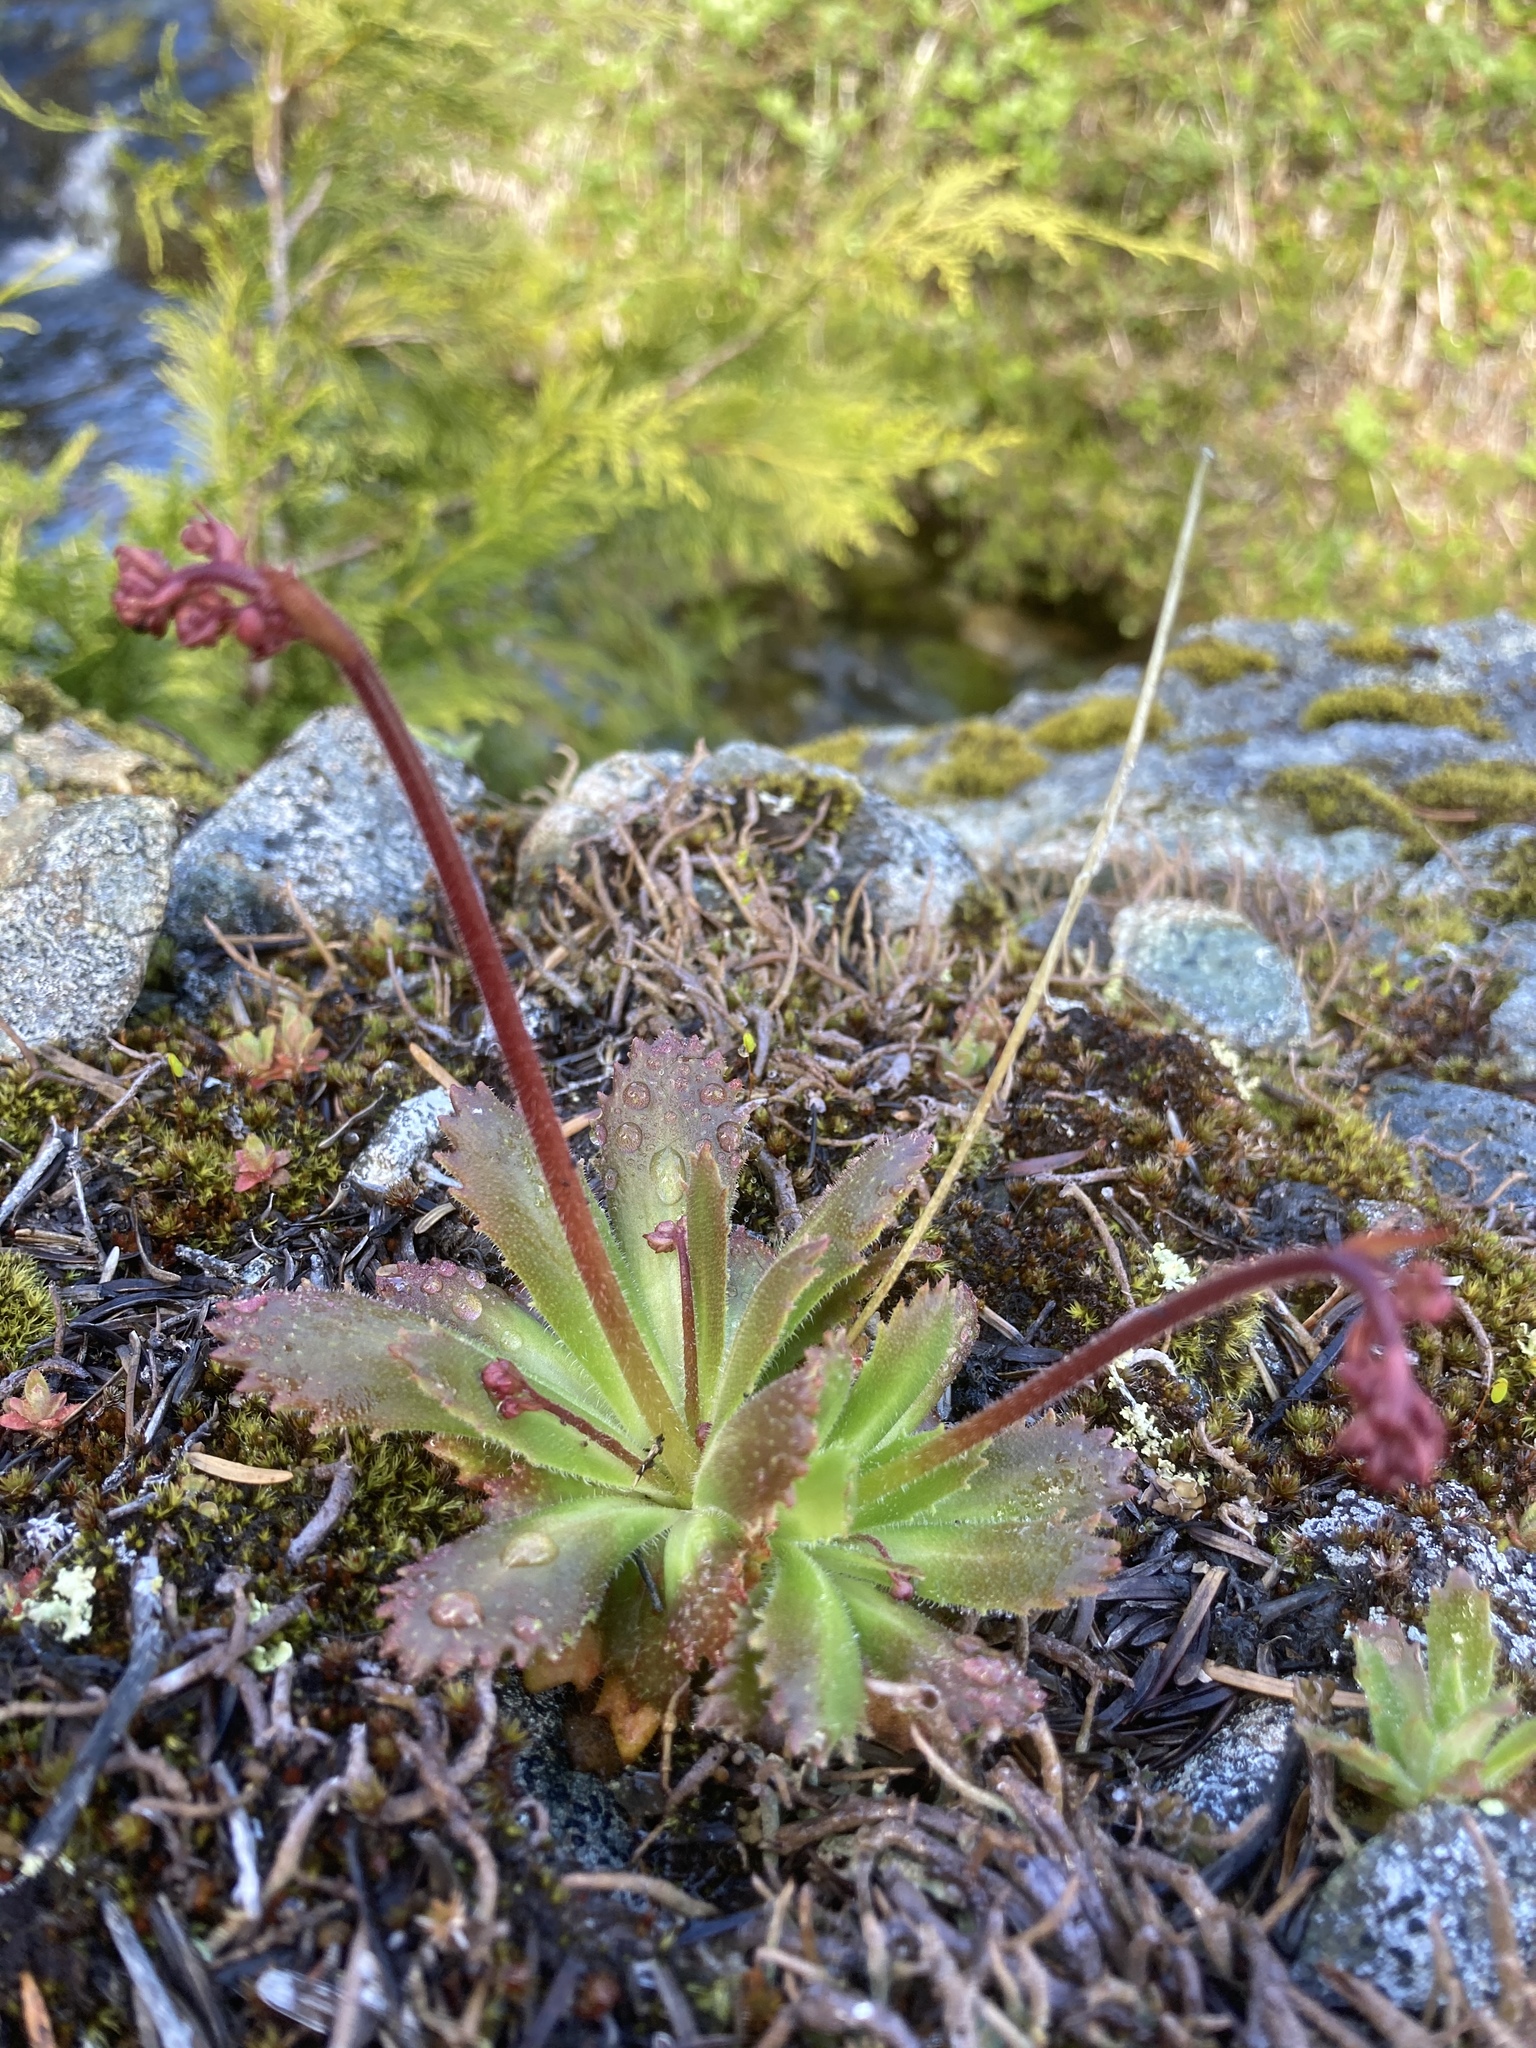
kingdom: Plantae
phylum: Tracheophyta
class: Magnoliopsida
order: Saxifragales
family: Saxifragaceae
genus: Micranthes
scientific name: Micranthes ferruginea
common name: Rusty saxifrage
